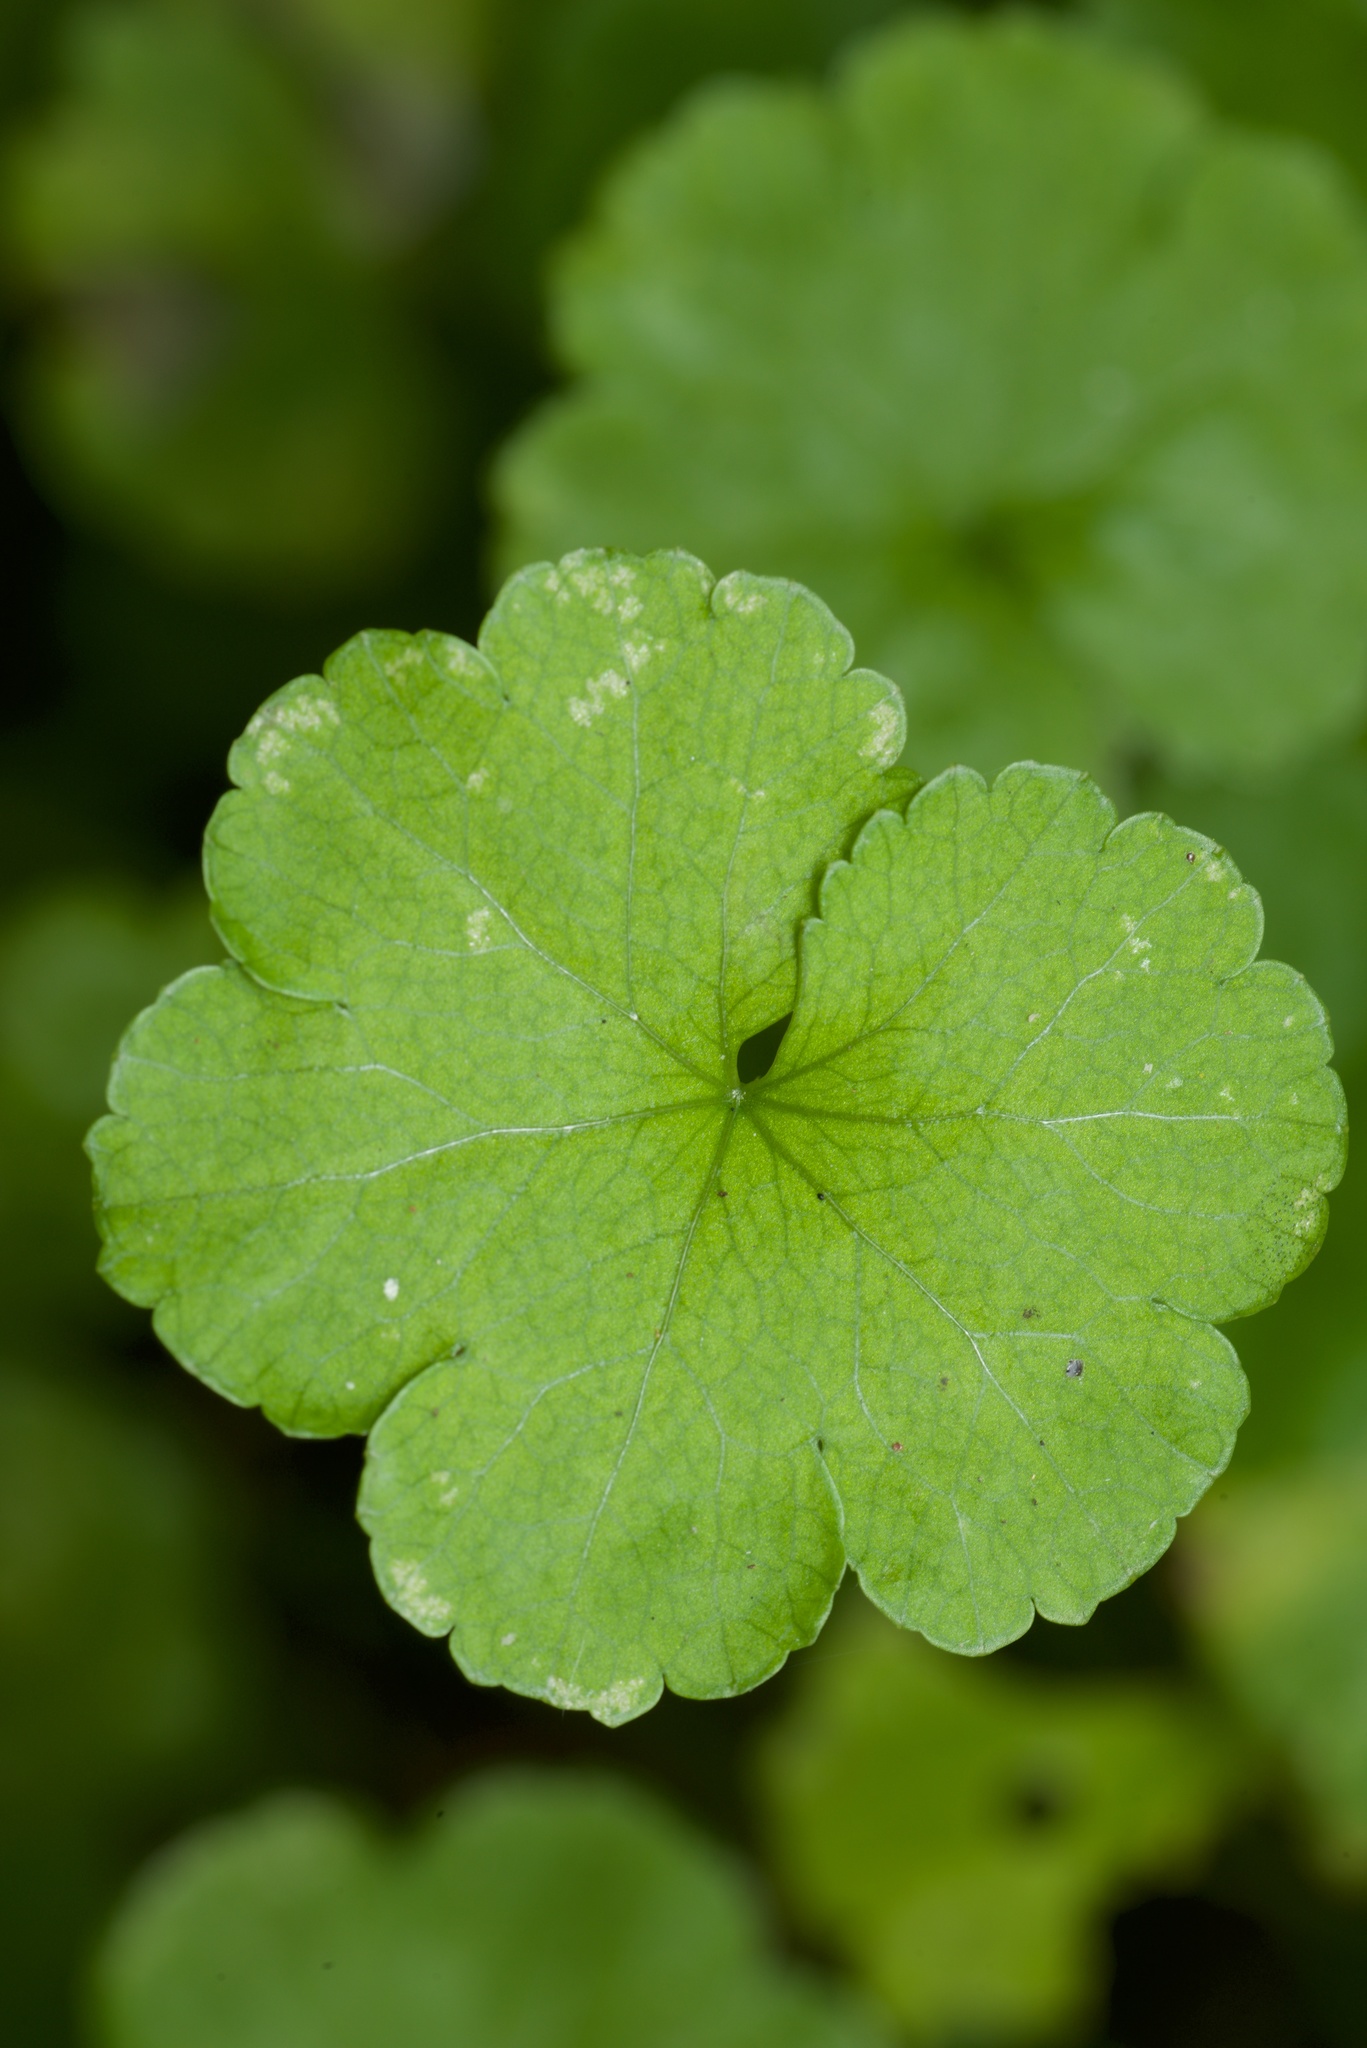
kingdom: Plantae
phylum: Tracheophyta
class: Magnoliopsida
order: Apiales
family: Araliaceae
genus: Hydrocotyle
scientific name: Hydrocotyle heteromeria
